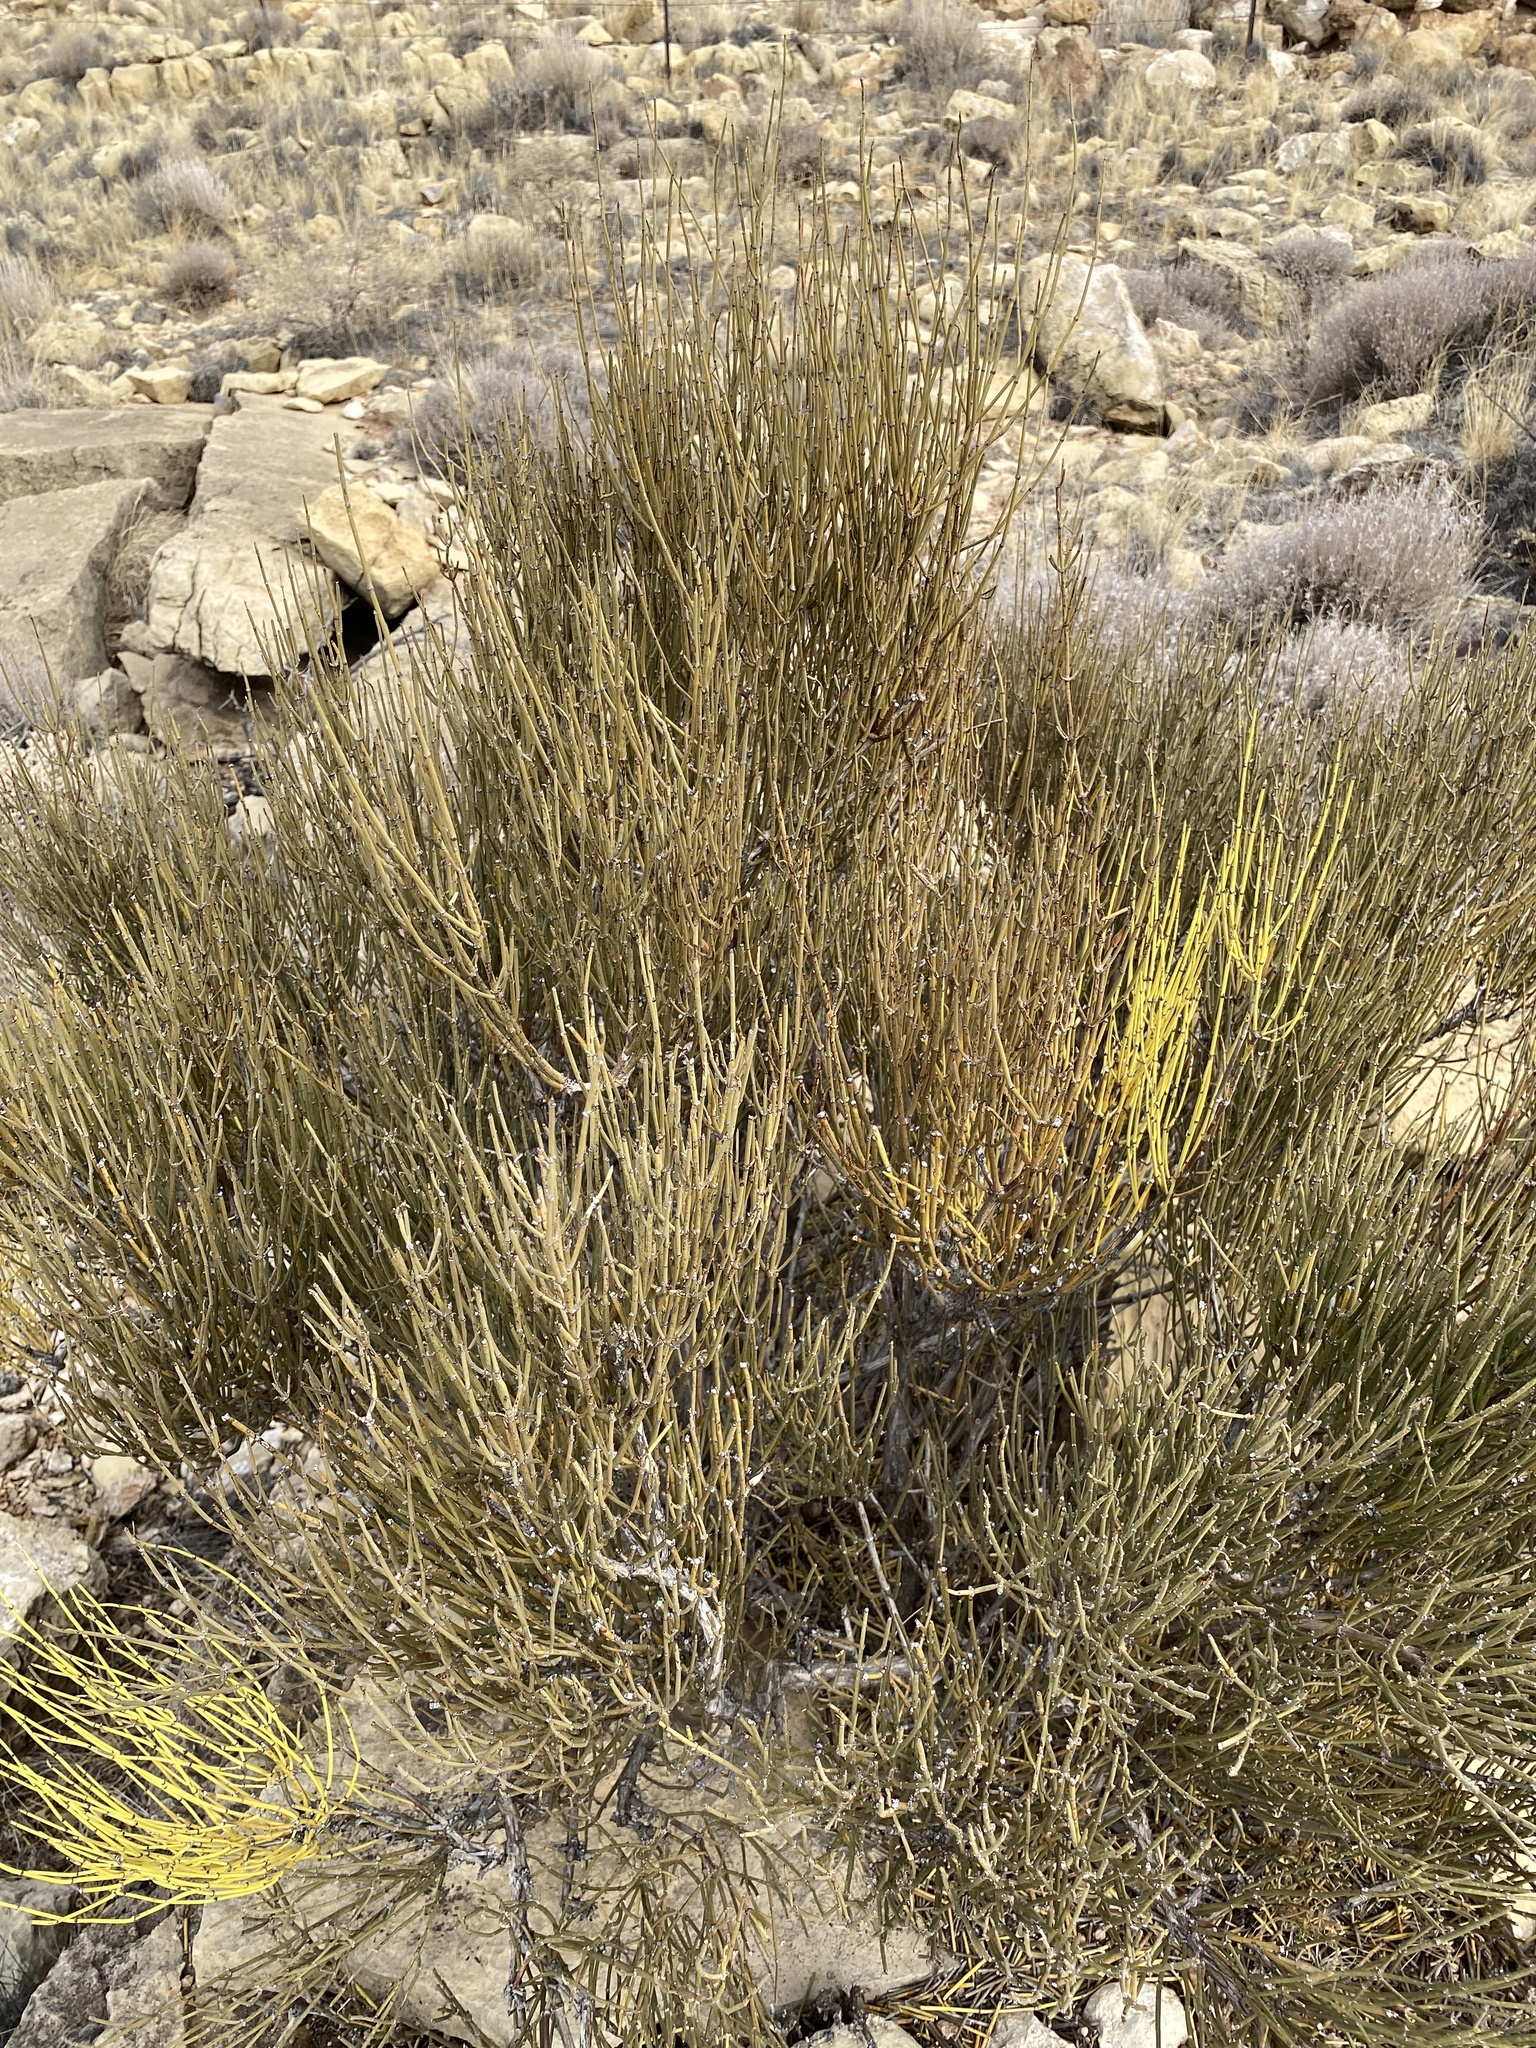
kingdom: Plantae
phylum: Tracheophyta
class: Gnetopsida
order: Ephedrales
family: Ephedraceae
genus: Ephedra
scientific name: Ephedra viridis
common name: Green ephedra
